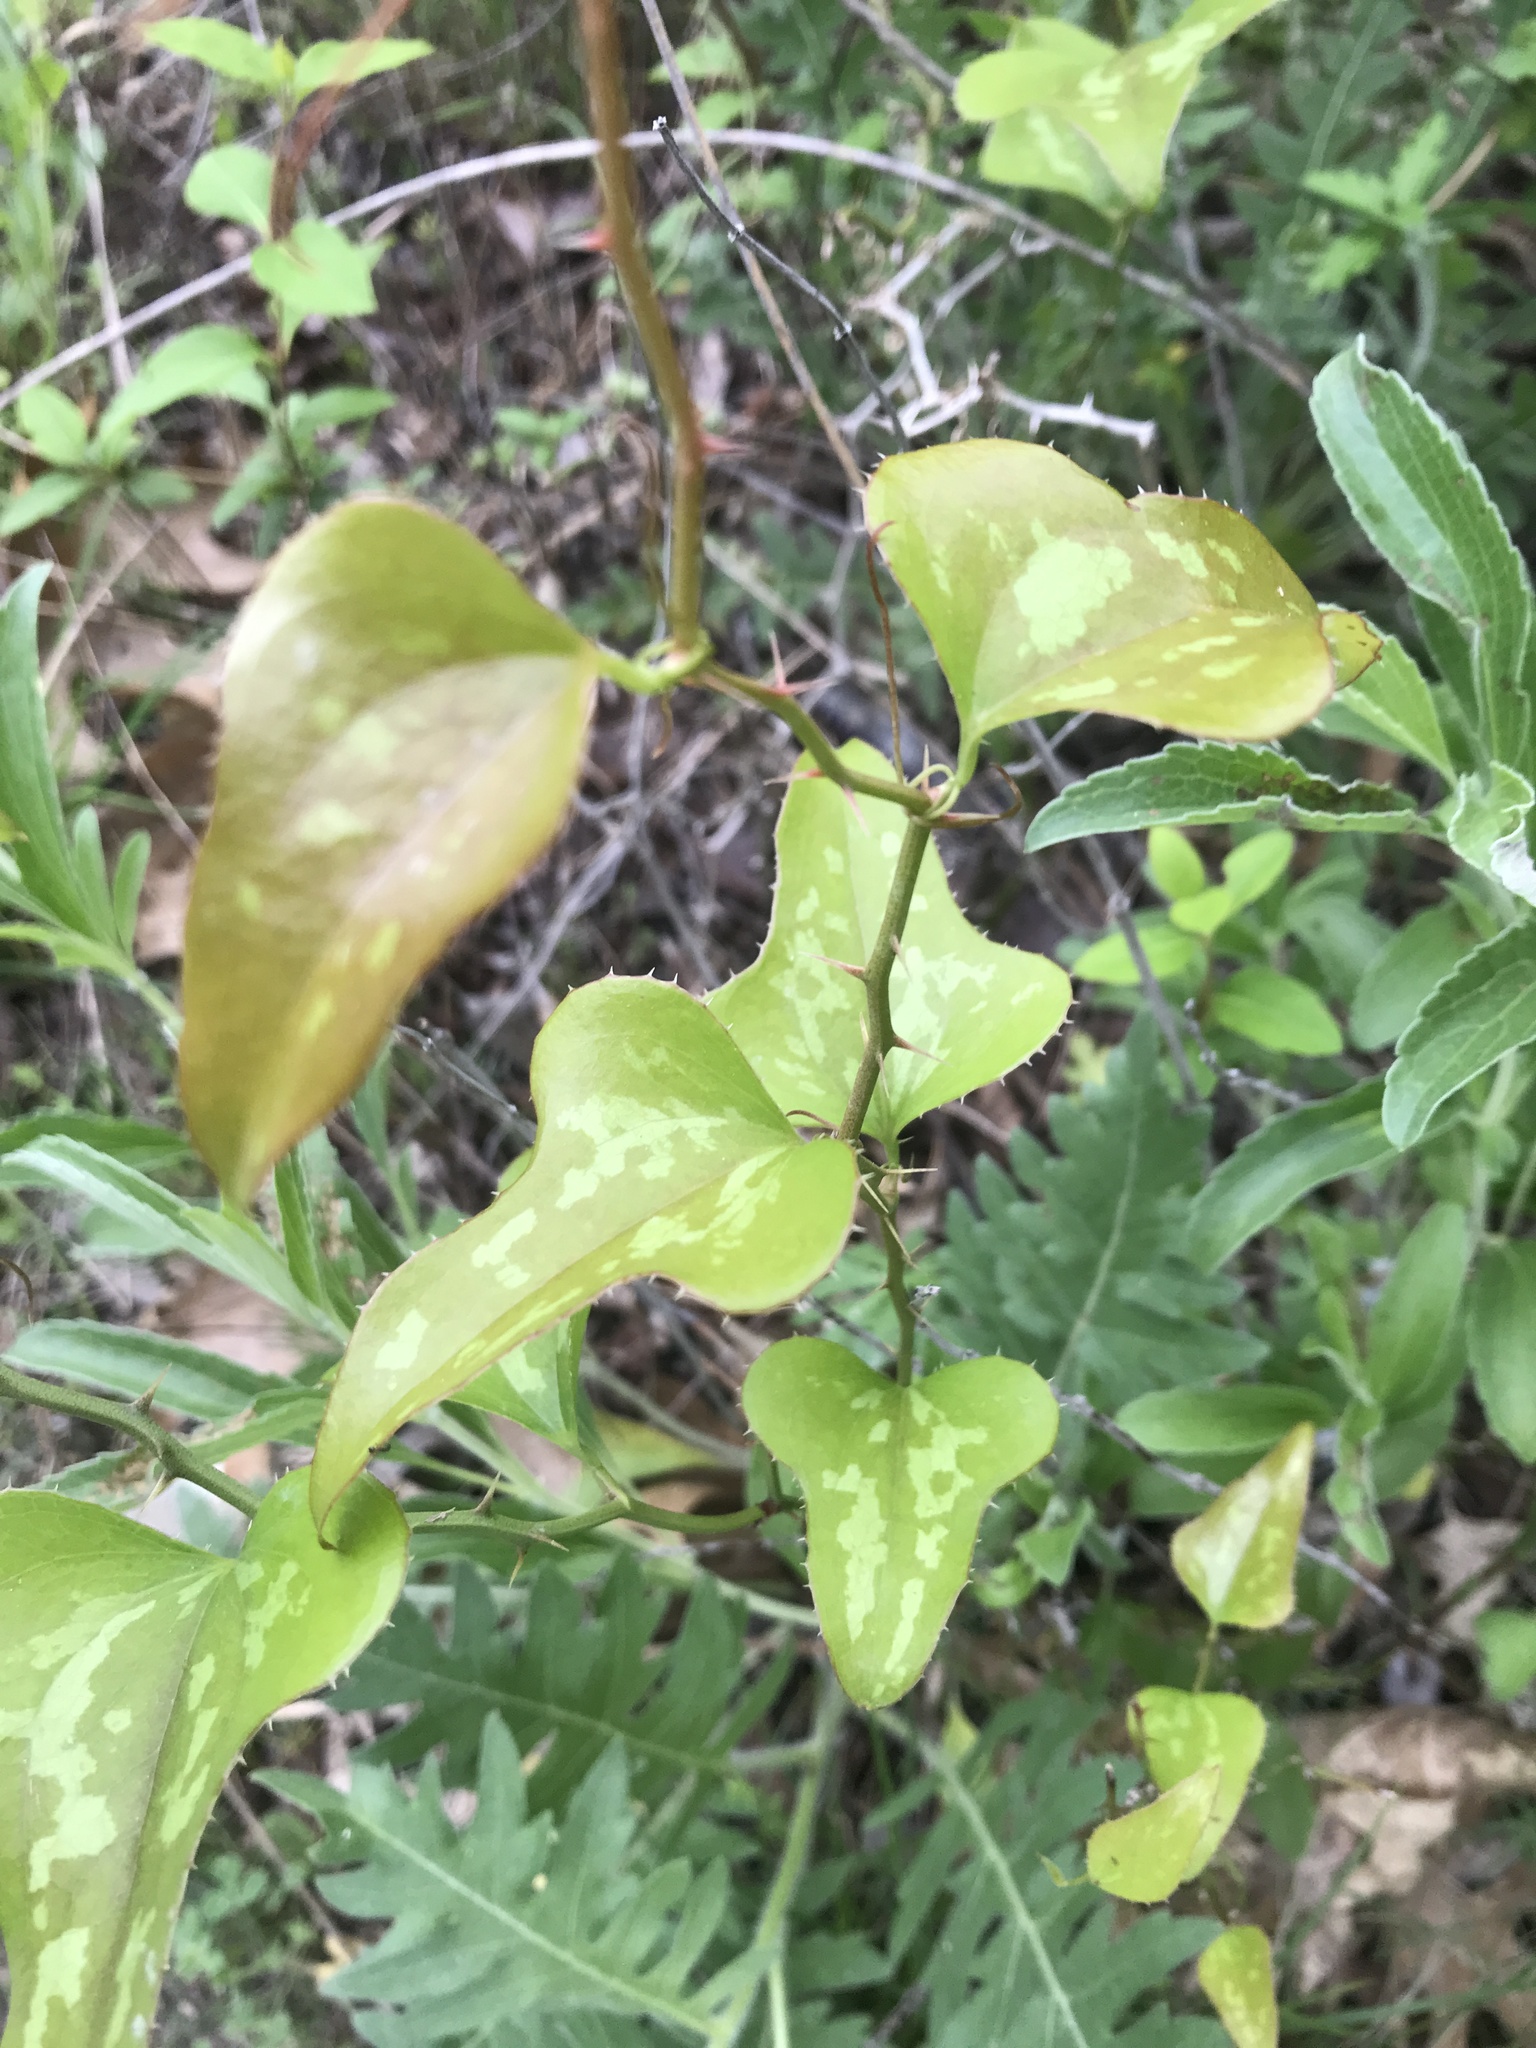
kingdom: Plantae
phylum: Tracheophyta
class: Liliopsida
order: Liliales
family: Smilacaceae
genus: Smilax
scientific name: Smilax bona-nox
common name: Catbrier
